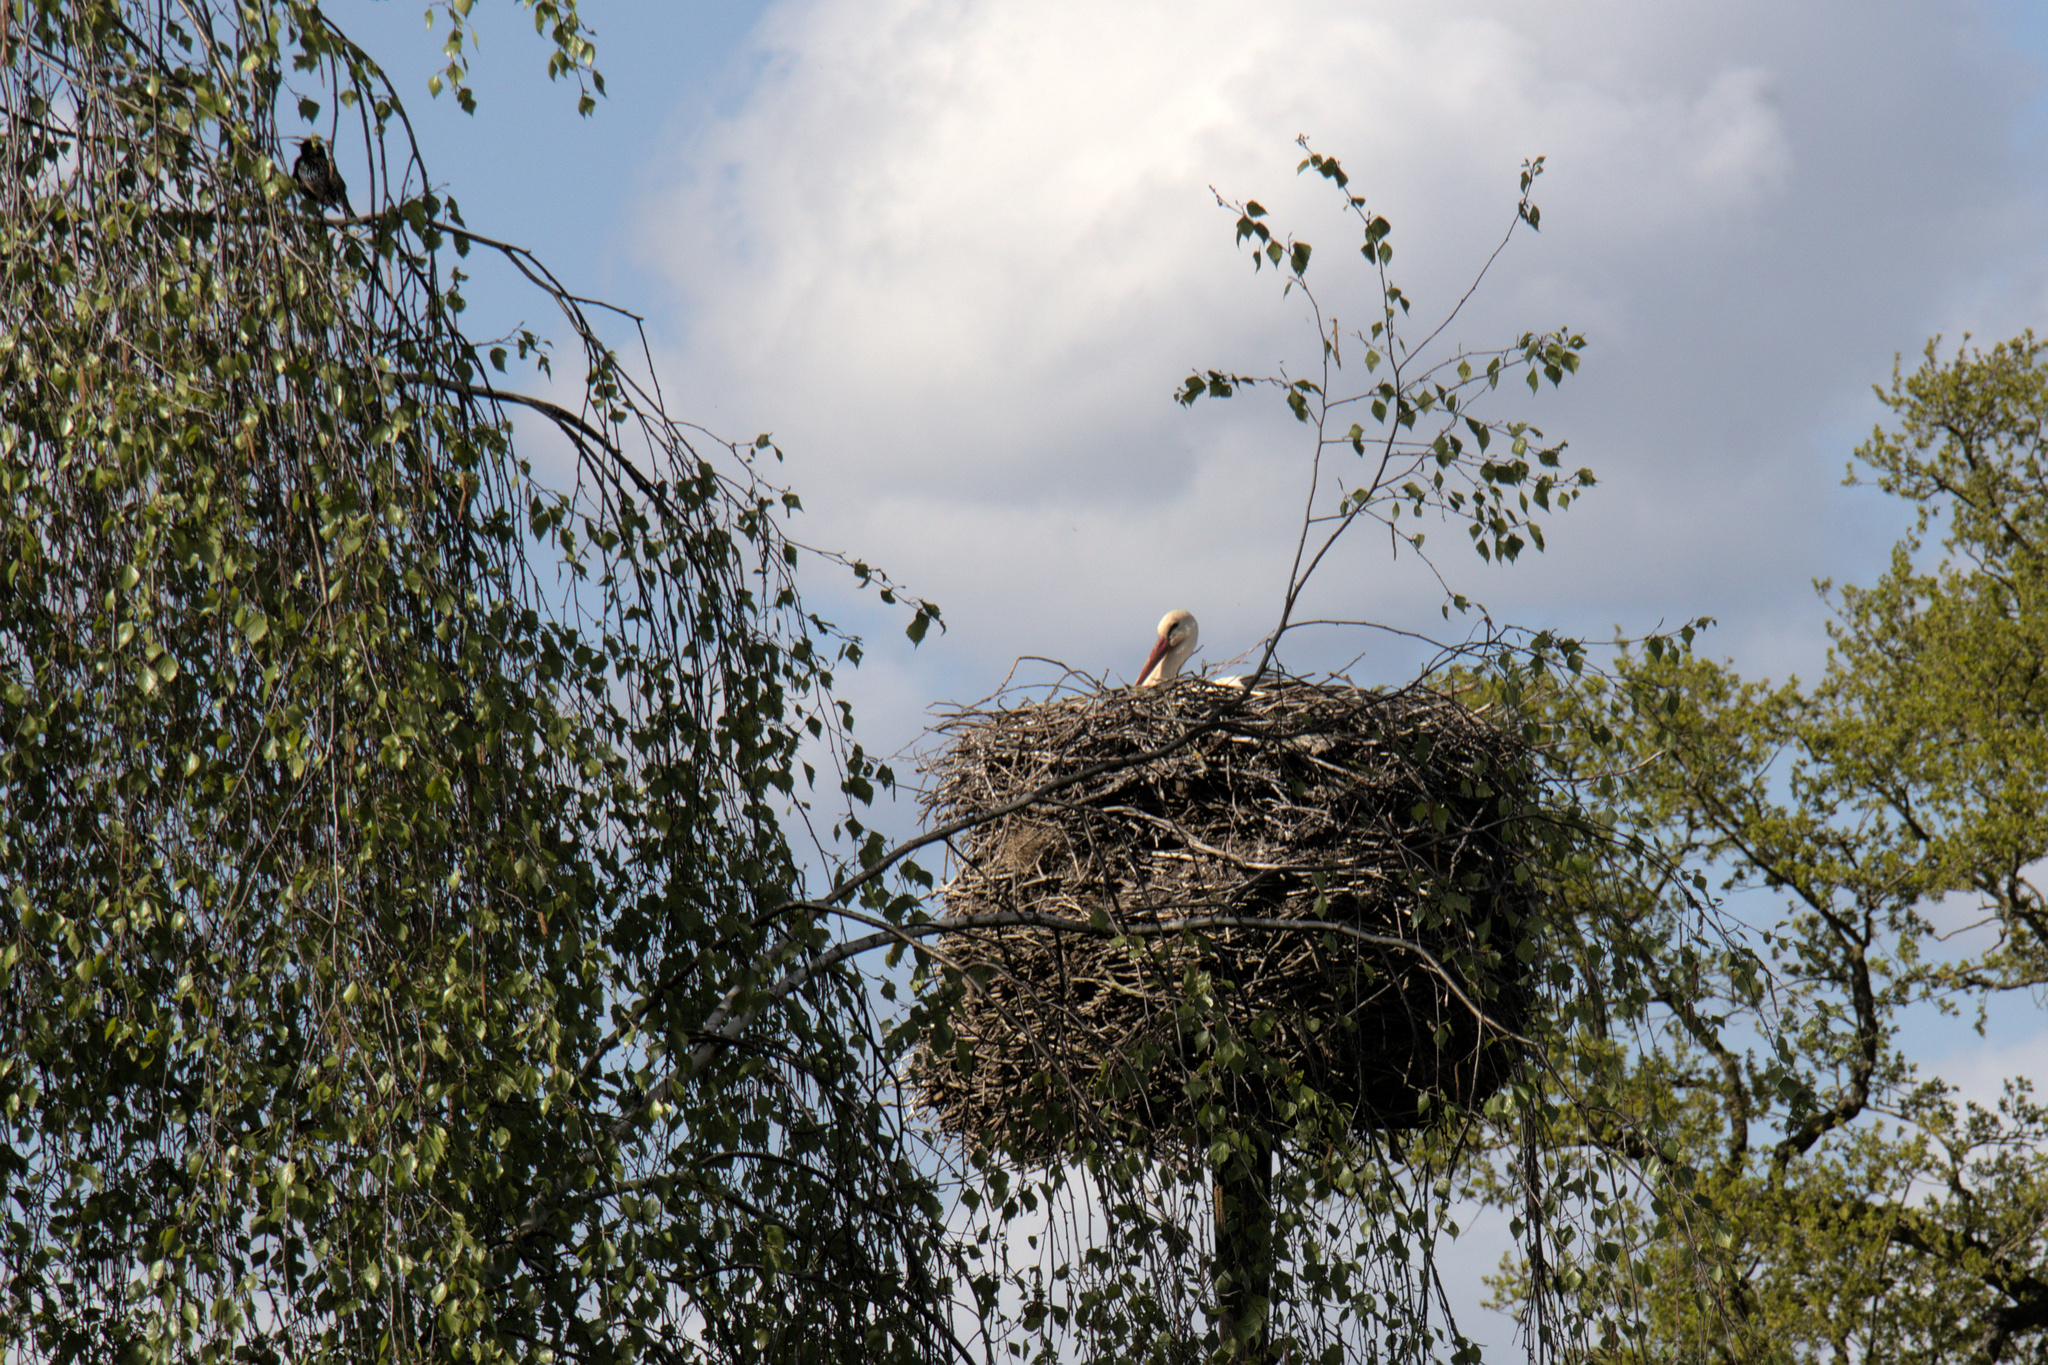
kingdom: Animalia
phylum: Chordata
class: Aves
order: Ciconiiformes
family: Ciconiidae
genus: Ciconia
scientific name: Ciconia ciconia
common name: White stork
